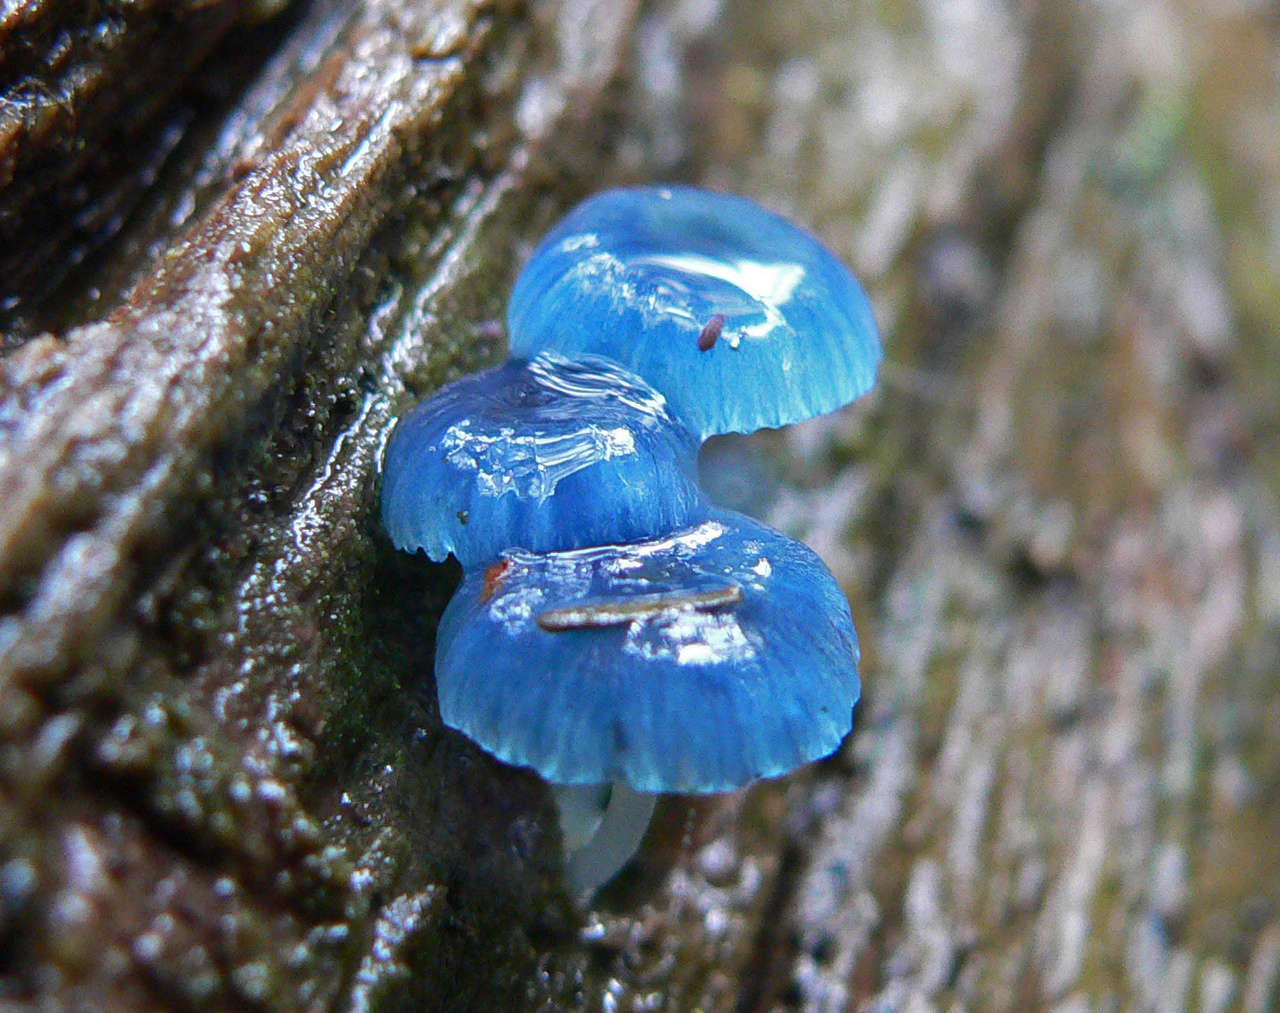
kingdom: Fungi
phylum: Basidiomycota
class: Agaricomycetes
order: Agaricales
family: Mycenaceae
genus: Mycena
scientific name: Mycena interrupta
